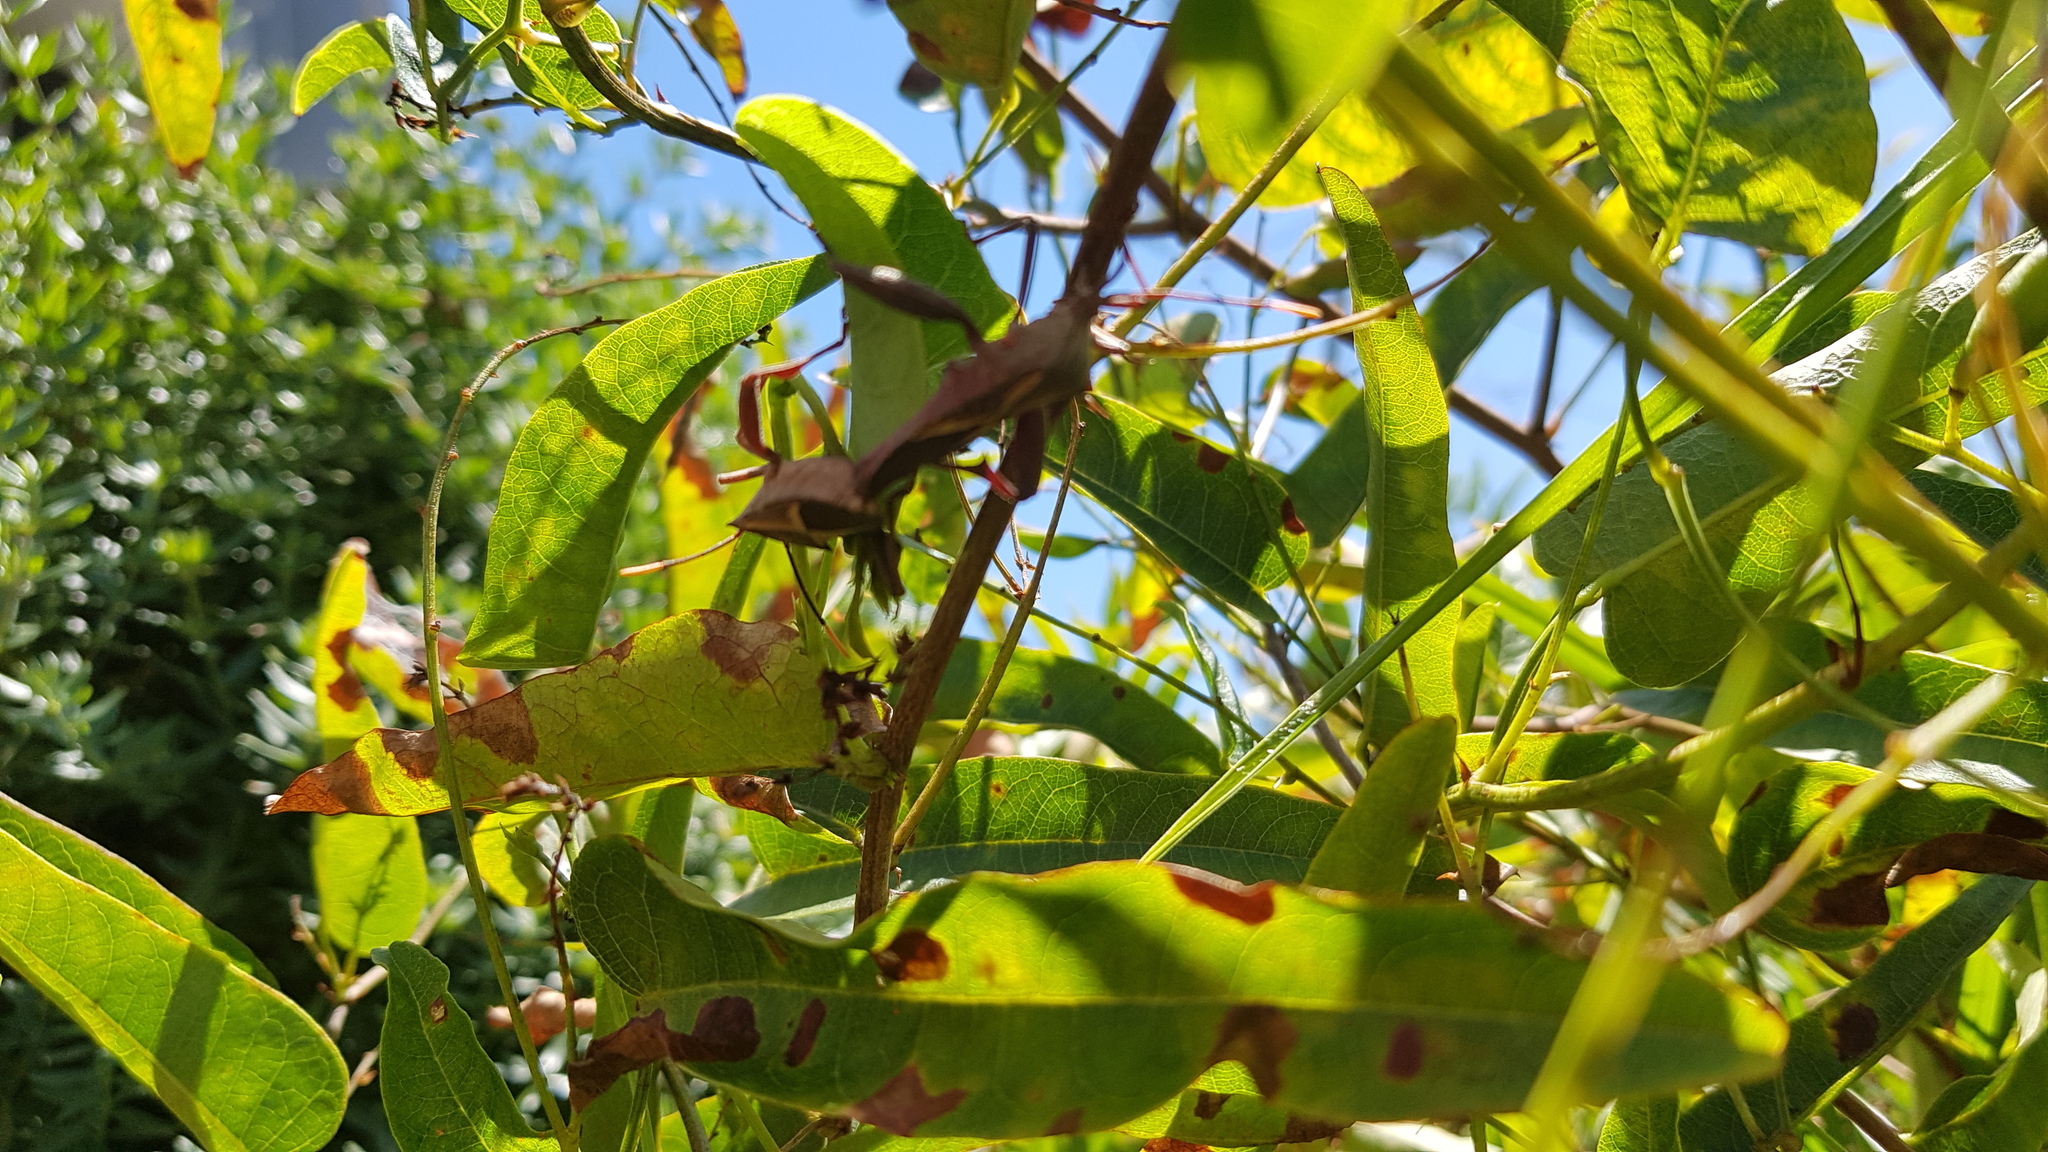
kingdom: Animalia
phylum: Arthropoda
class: Insecta
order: Hemiptera
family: Coreidae
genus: Mictis
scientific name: Mictis profana
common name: Crusader bug
